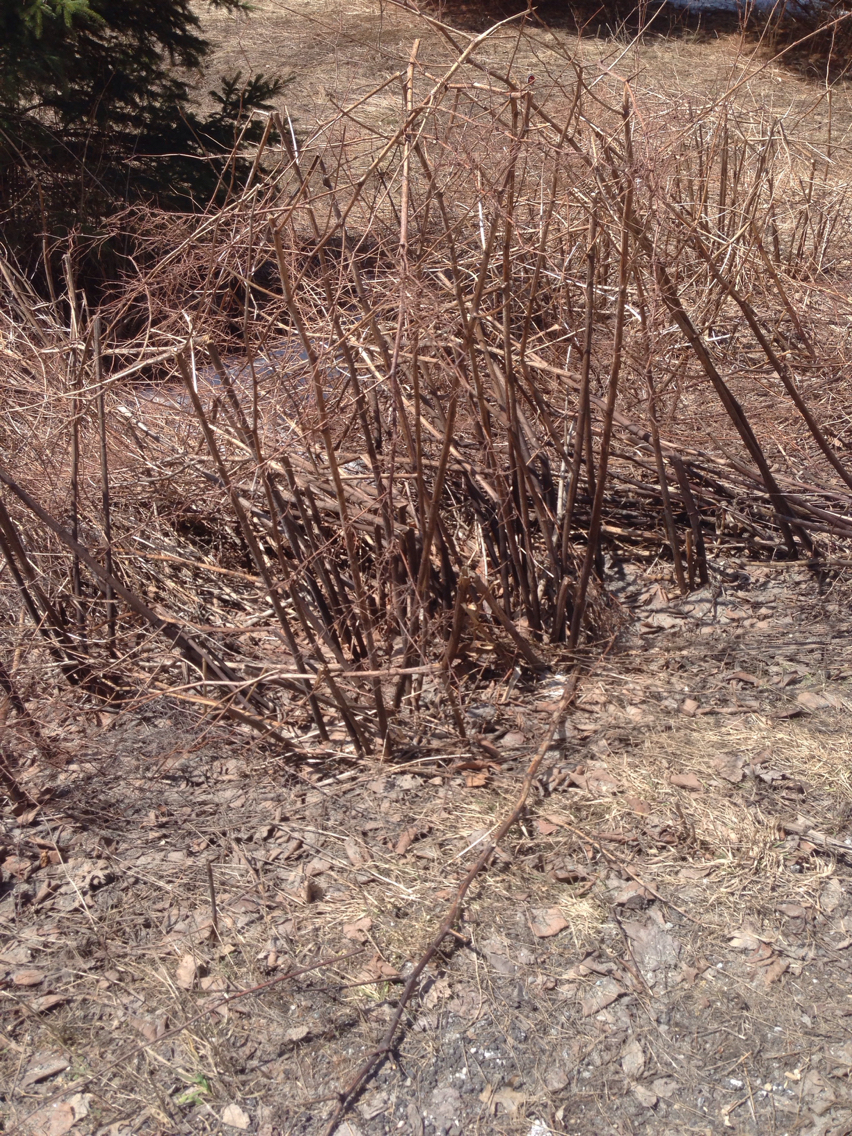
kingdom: Plantae
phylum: Tracheophyta
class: Magnoliopsida
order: Caryophyllales
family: Polygonaceae
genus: Reynoutria
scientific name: Reynoutria japonica
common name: Japanese knotweed
